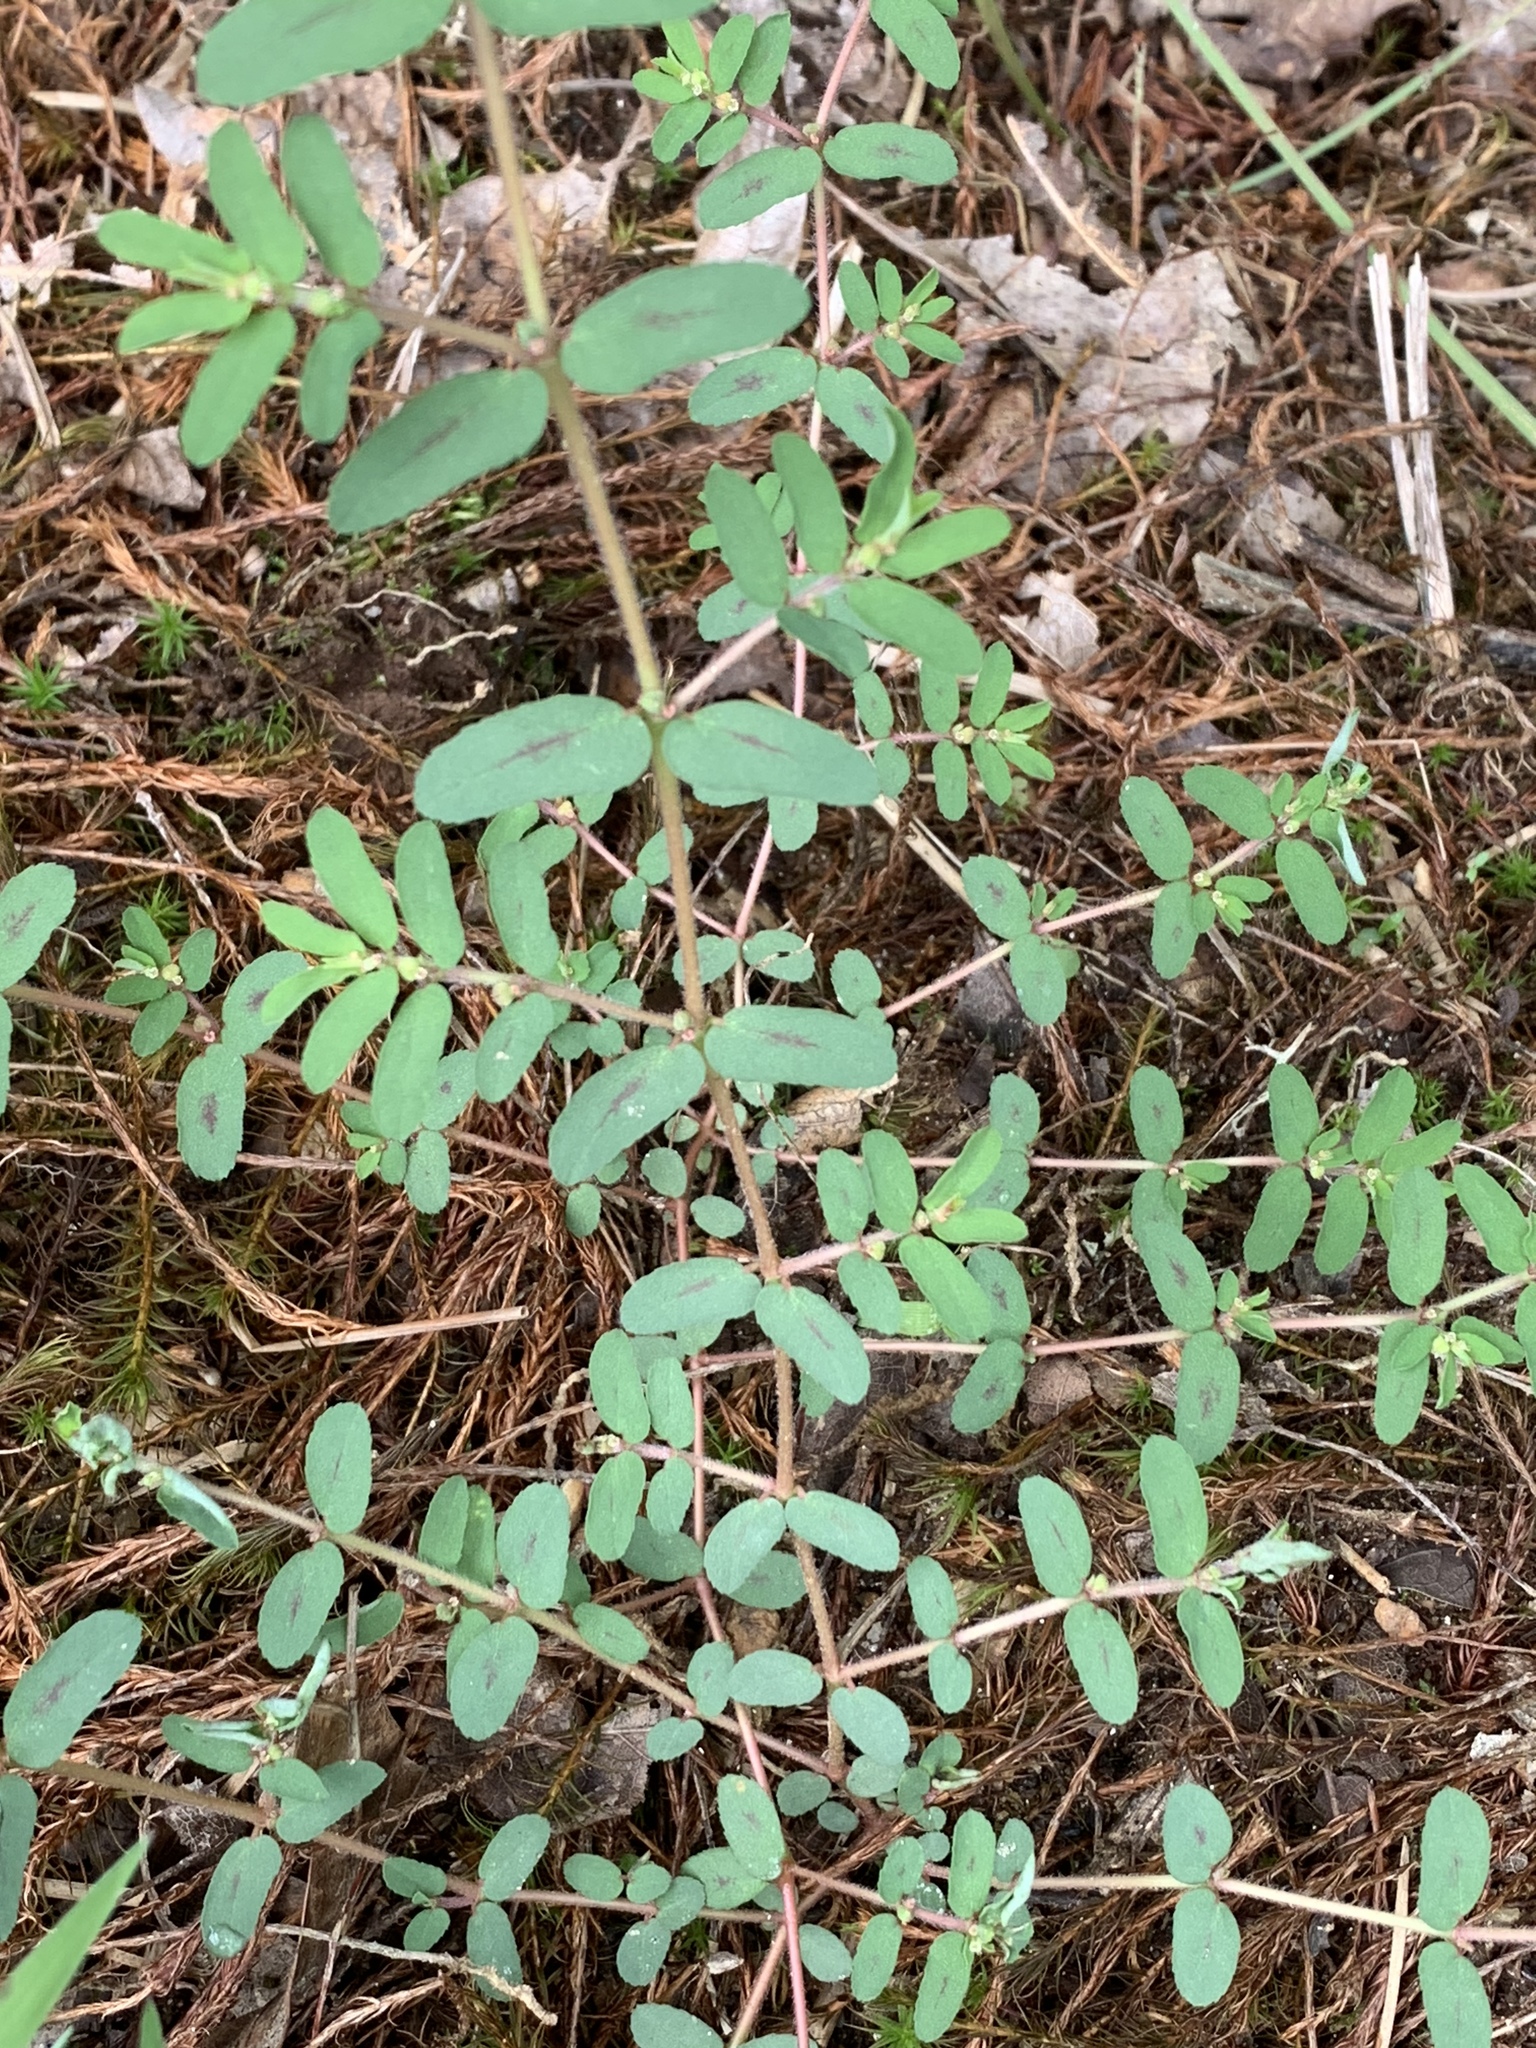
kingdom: Plantae
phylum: Tracheophyta
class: Magnoliopsida
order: Malpighiales
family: Euphorbiaceae
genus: Euphorbia
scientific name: Euphorbia maculata
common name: Spotted spurge
